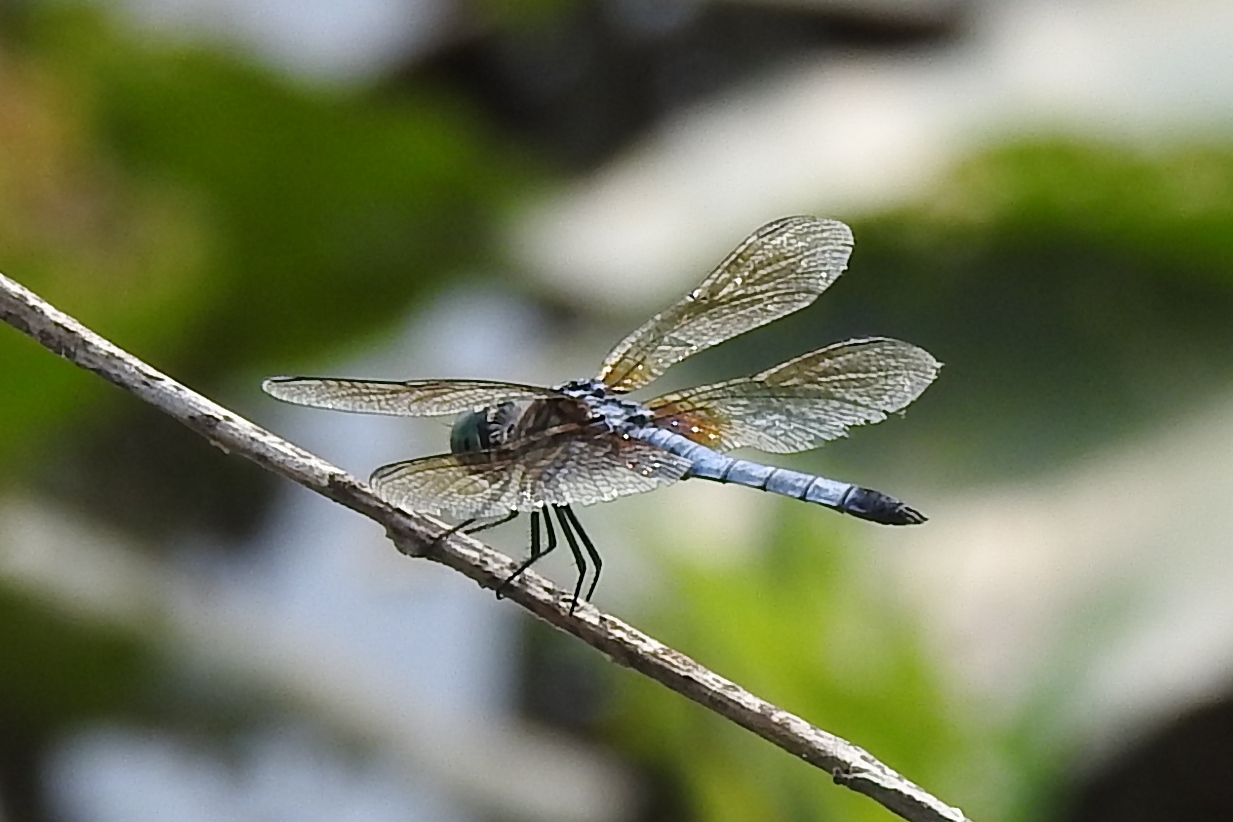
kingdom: Animalia
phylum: Arthropoda
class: Insecta
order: Odonata
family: Libellulidae
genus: Pachydiplax
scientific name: Pachydiplax longipennis
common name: Blue dasher
